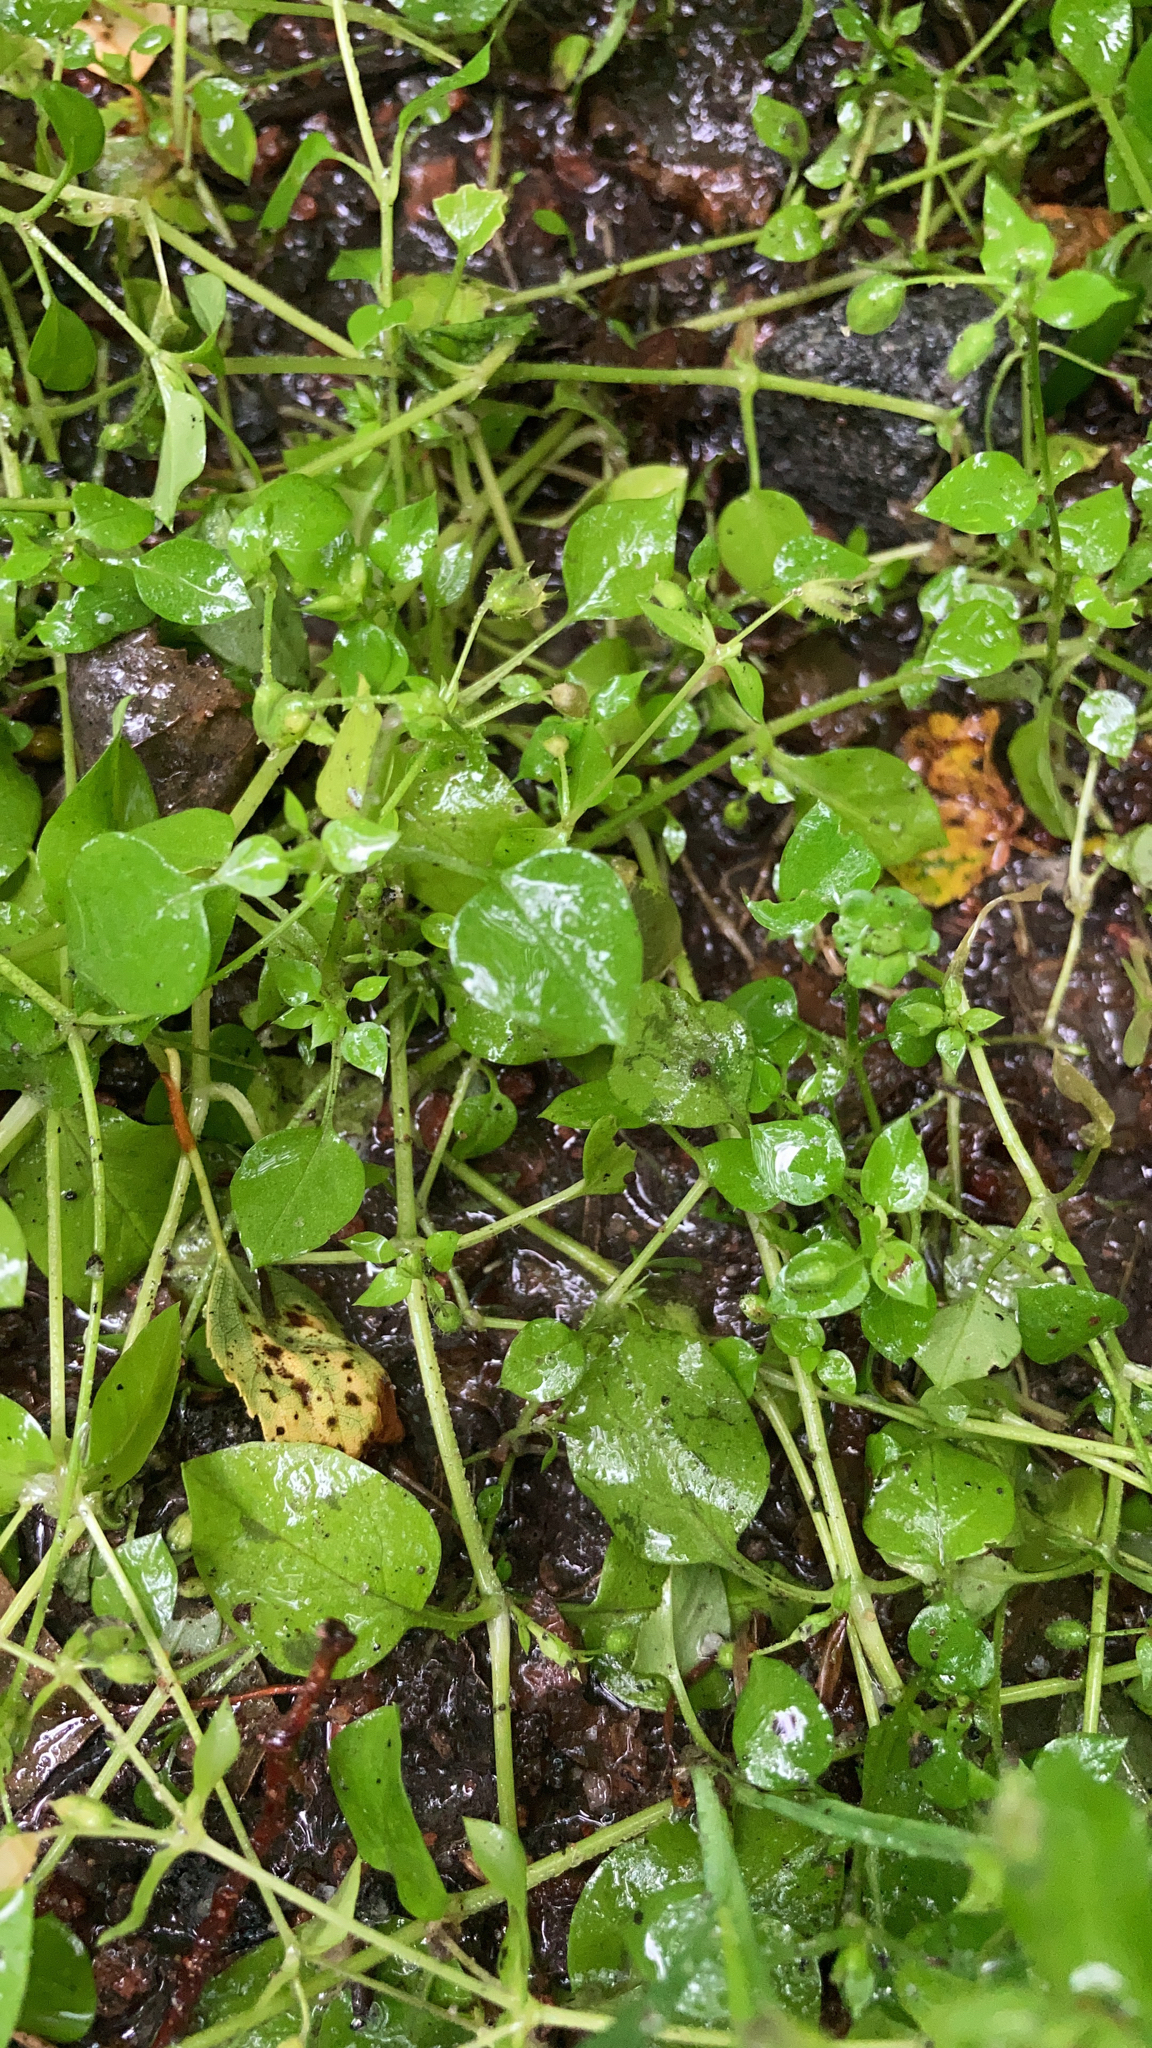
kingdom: Plantae
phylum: Tracheophyta
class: Magnoliopsida
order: Caryophyllales
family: Caryophyllaceae
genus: Stellaria
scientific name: Stellaria media
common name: Common chickweed
